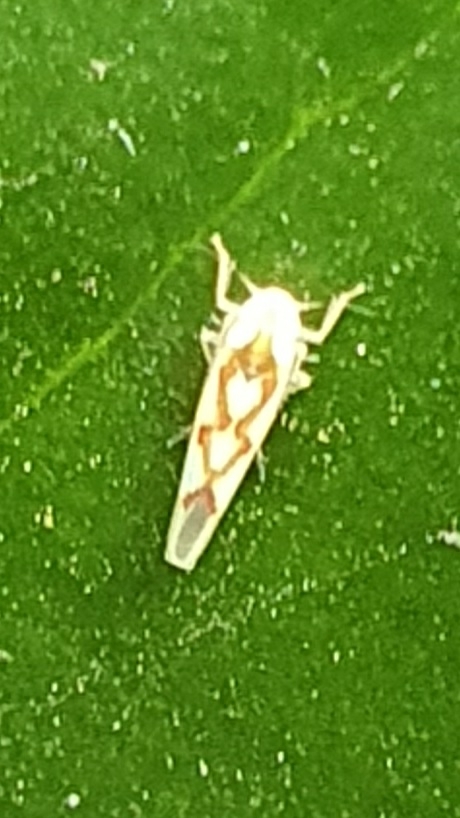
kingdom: Animalia
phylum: Arthropoda
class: Insecta
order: Hemiptera
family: Cicadellidae
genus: Zygina
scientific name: Zygina flammigera
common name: Leafhopper
